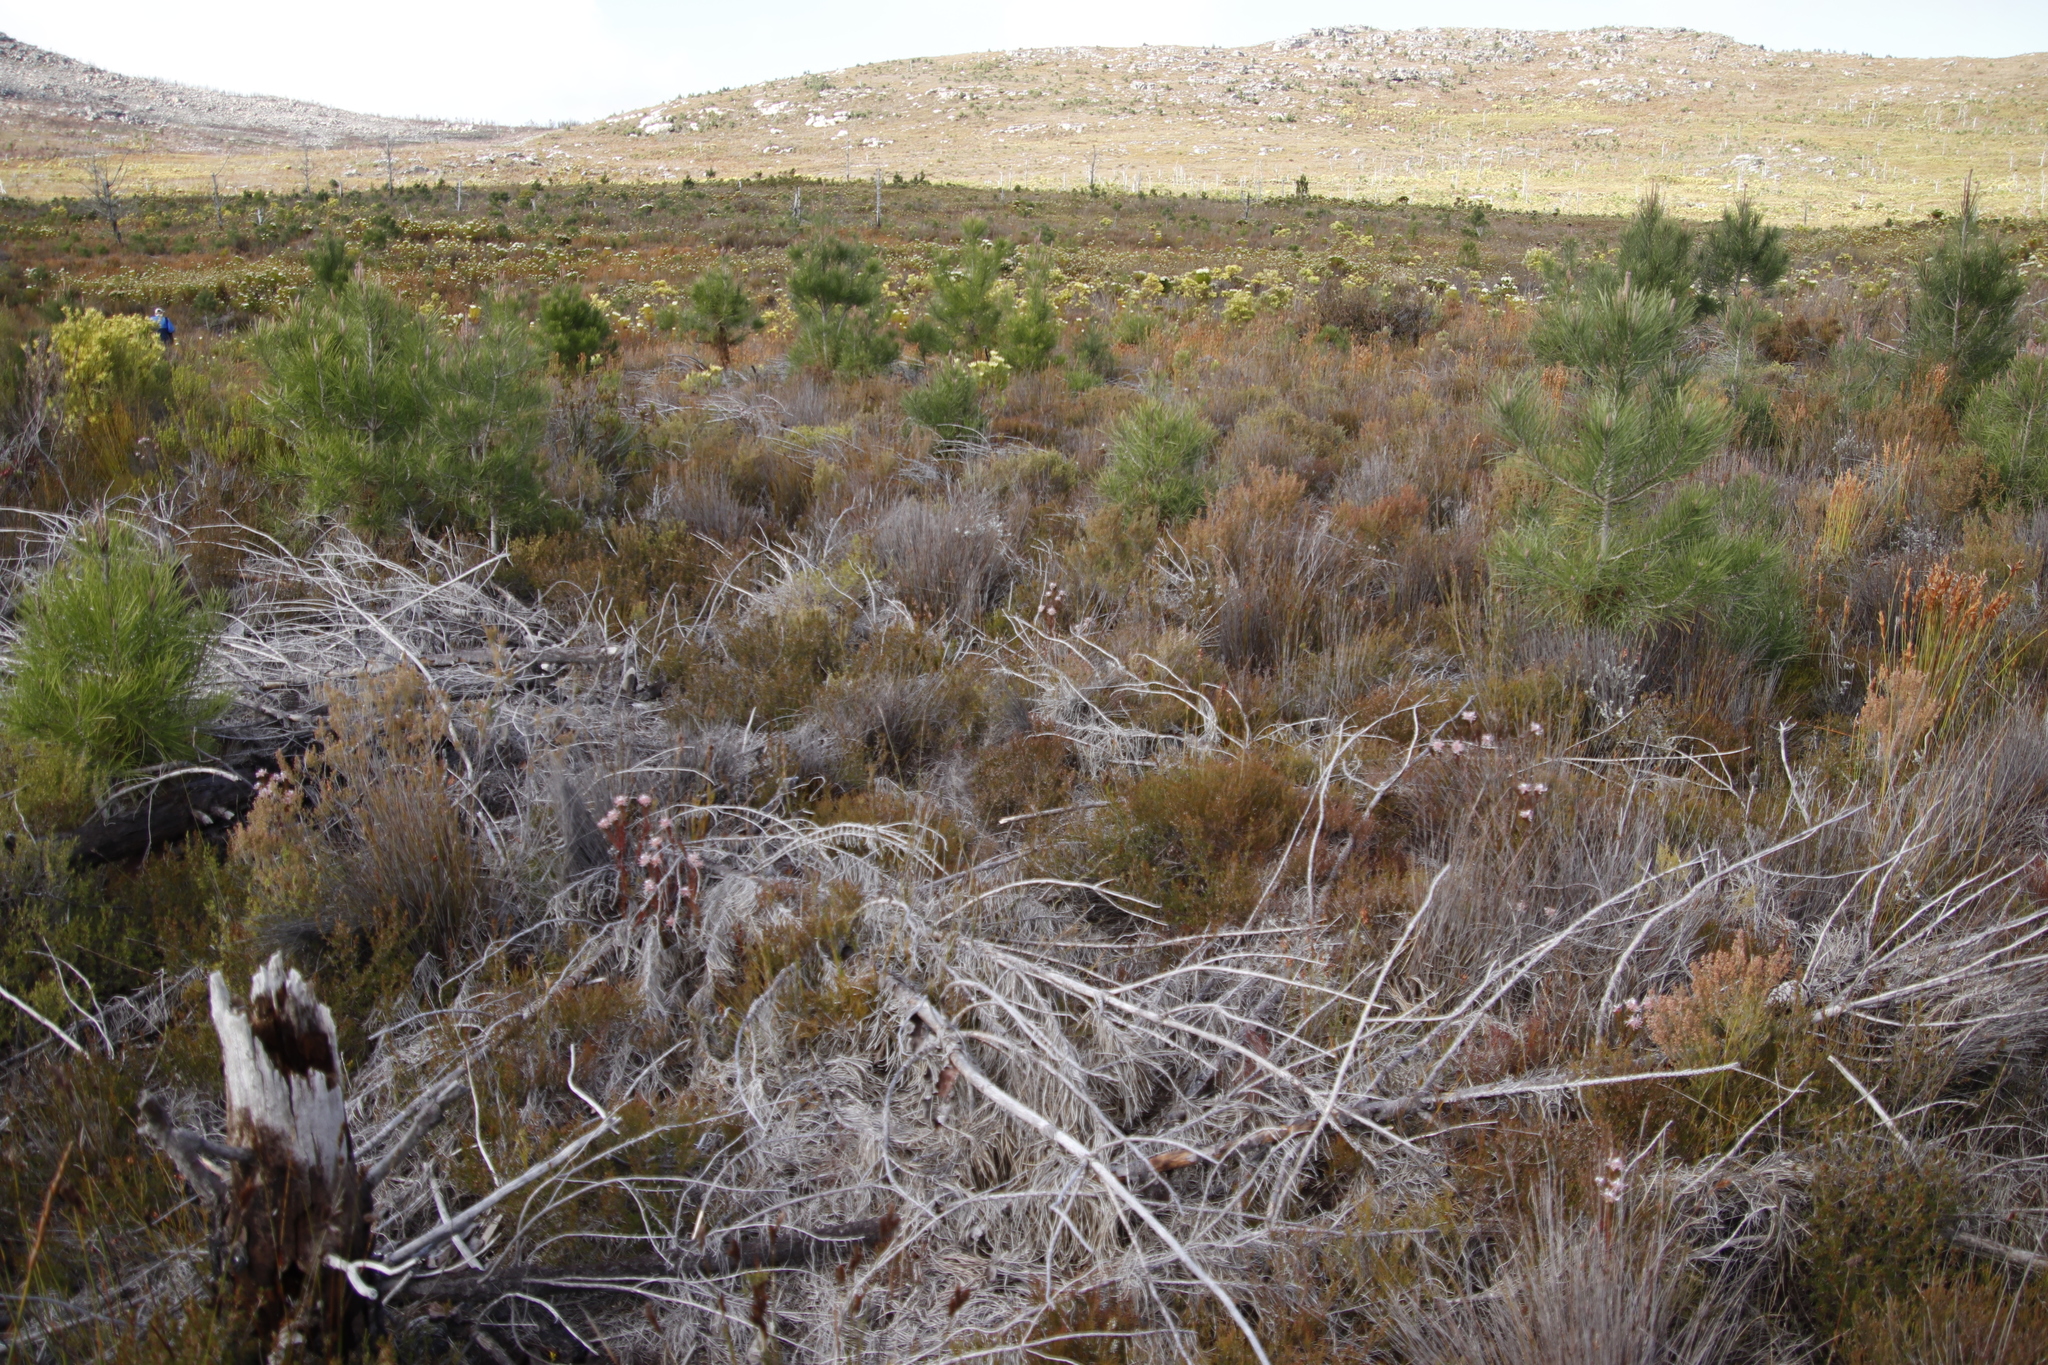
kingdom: Plantae
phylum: Tracheophyta
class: Magnoliopsida
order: Proteales
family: Proteaceae
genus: Serruria
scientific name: Serruria rostellaris
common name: Remote spiderhead
